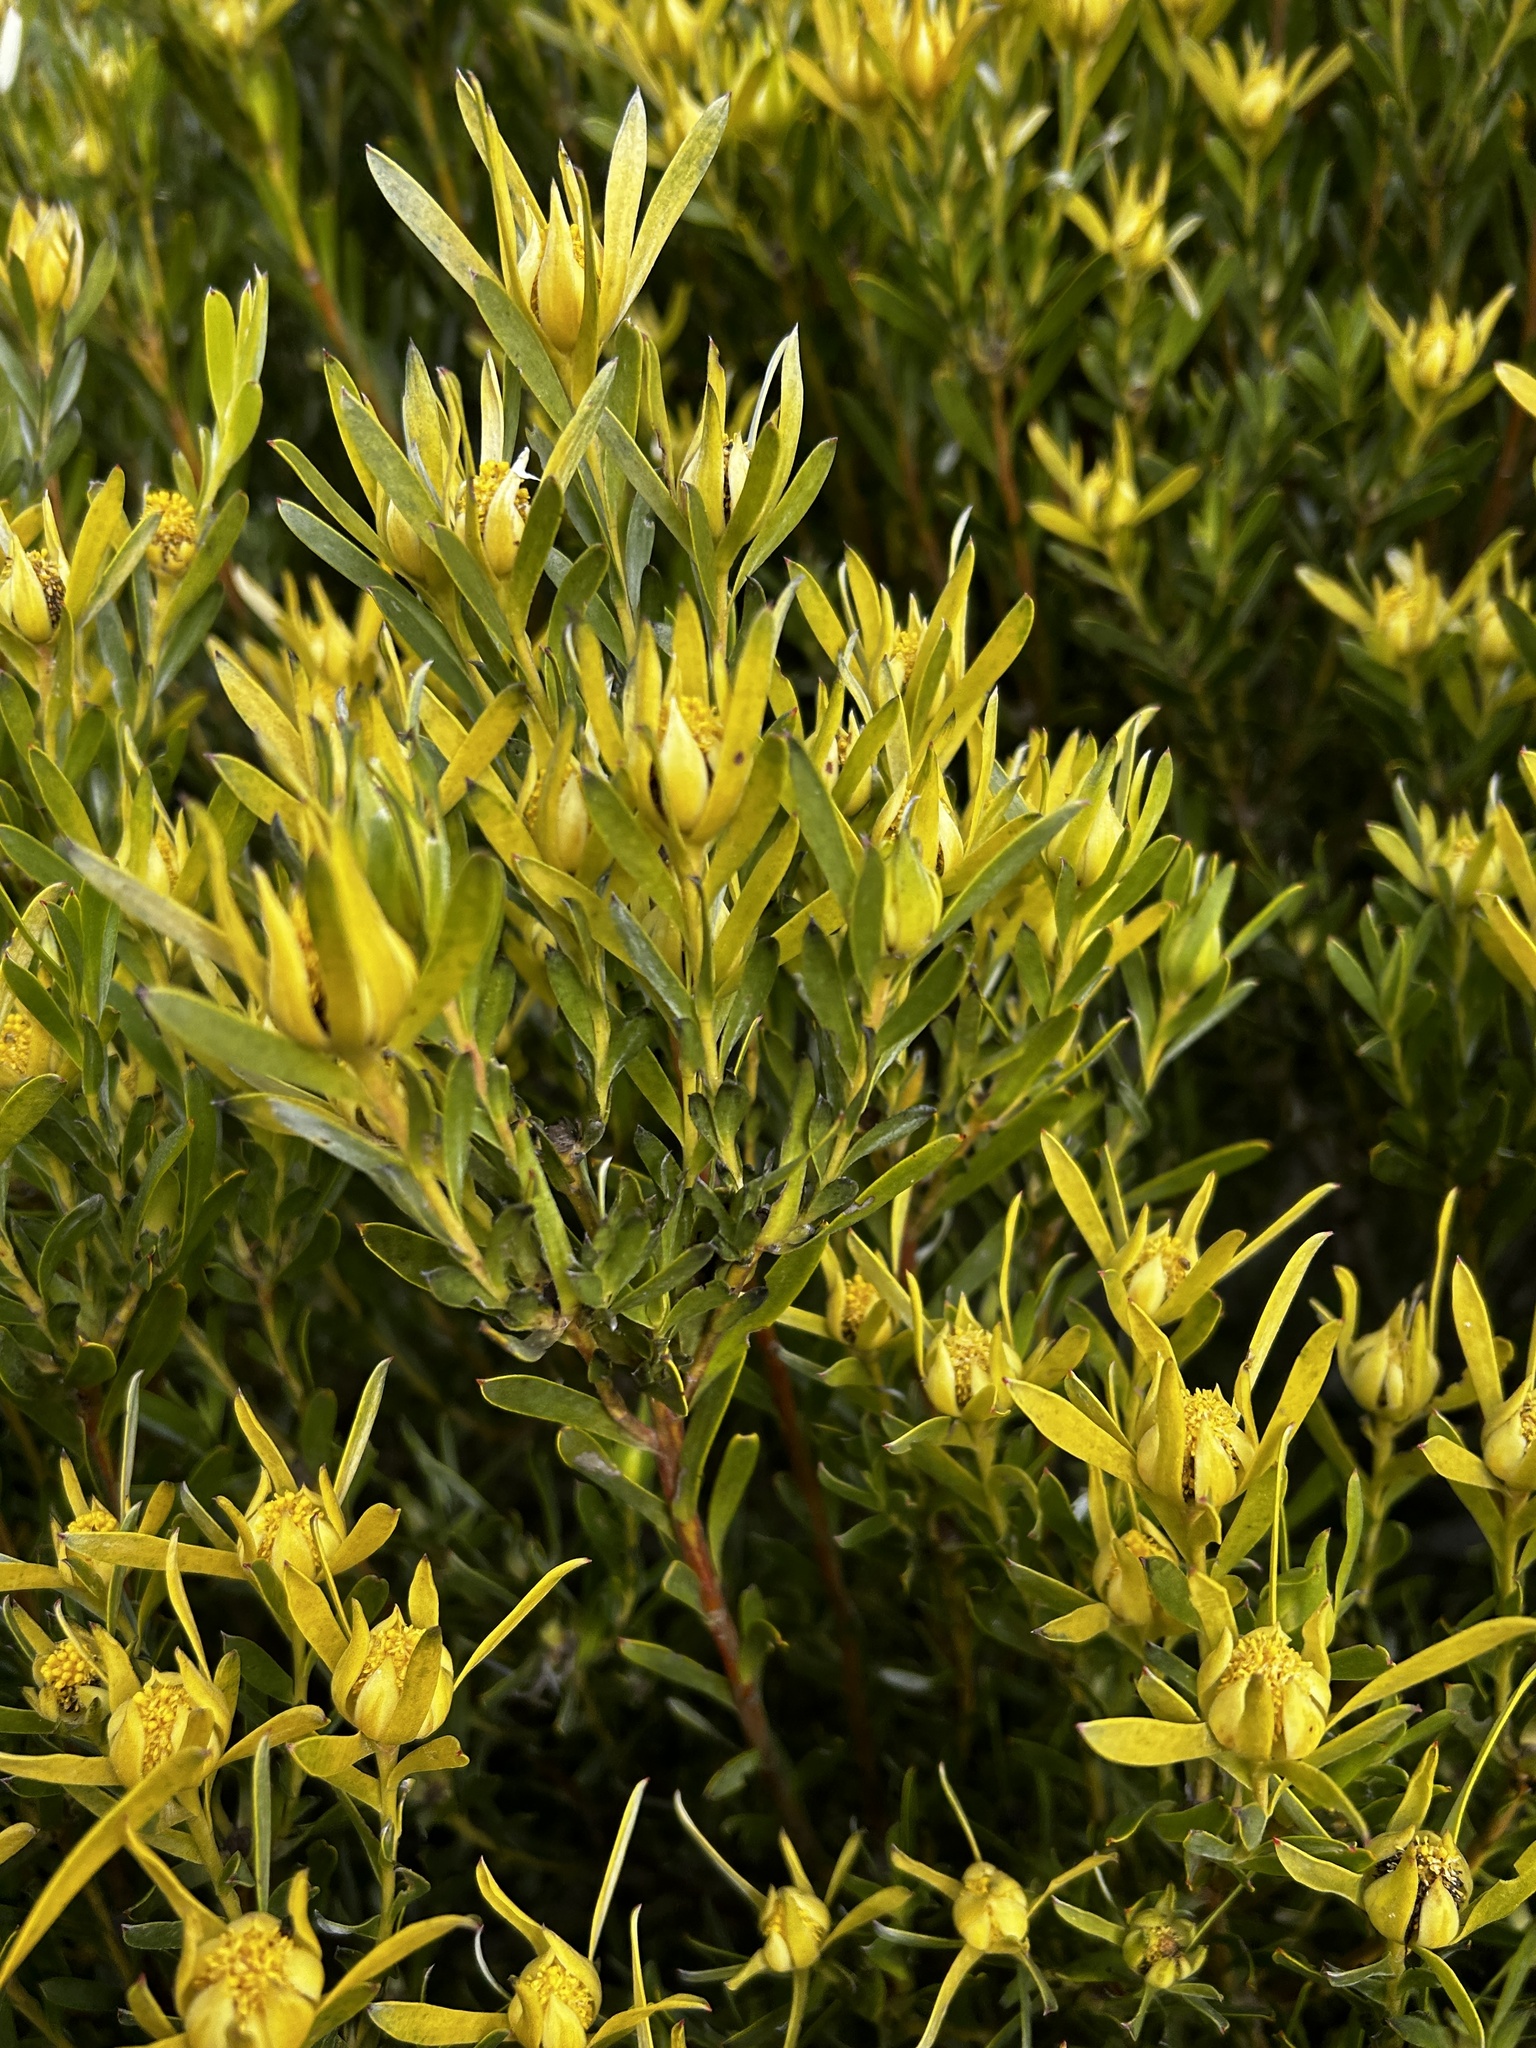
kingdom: Plantae
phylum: Tracheophyta
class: Magnoliopsida
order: Proteales
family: Proteaceae
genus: Leucadendron
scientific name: Leucadendron meridianum
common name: Limestone conebush
